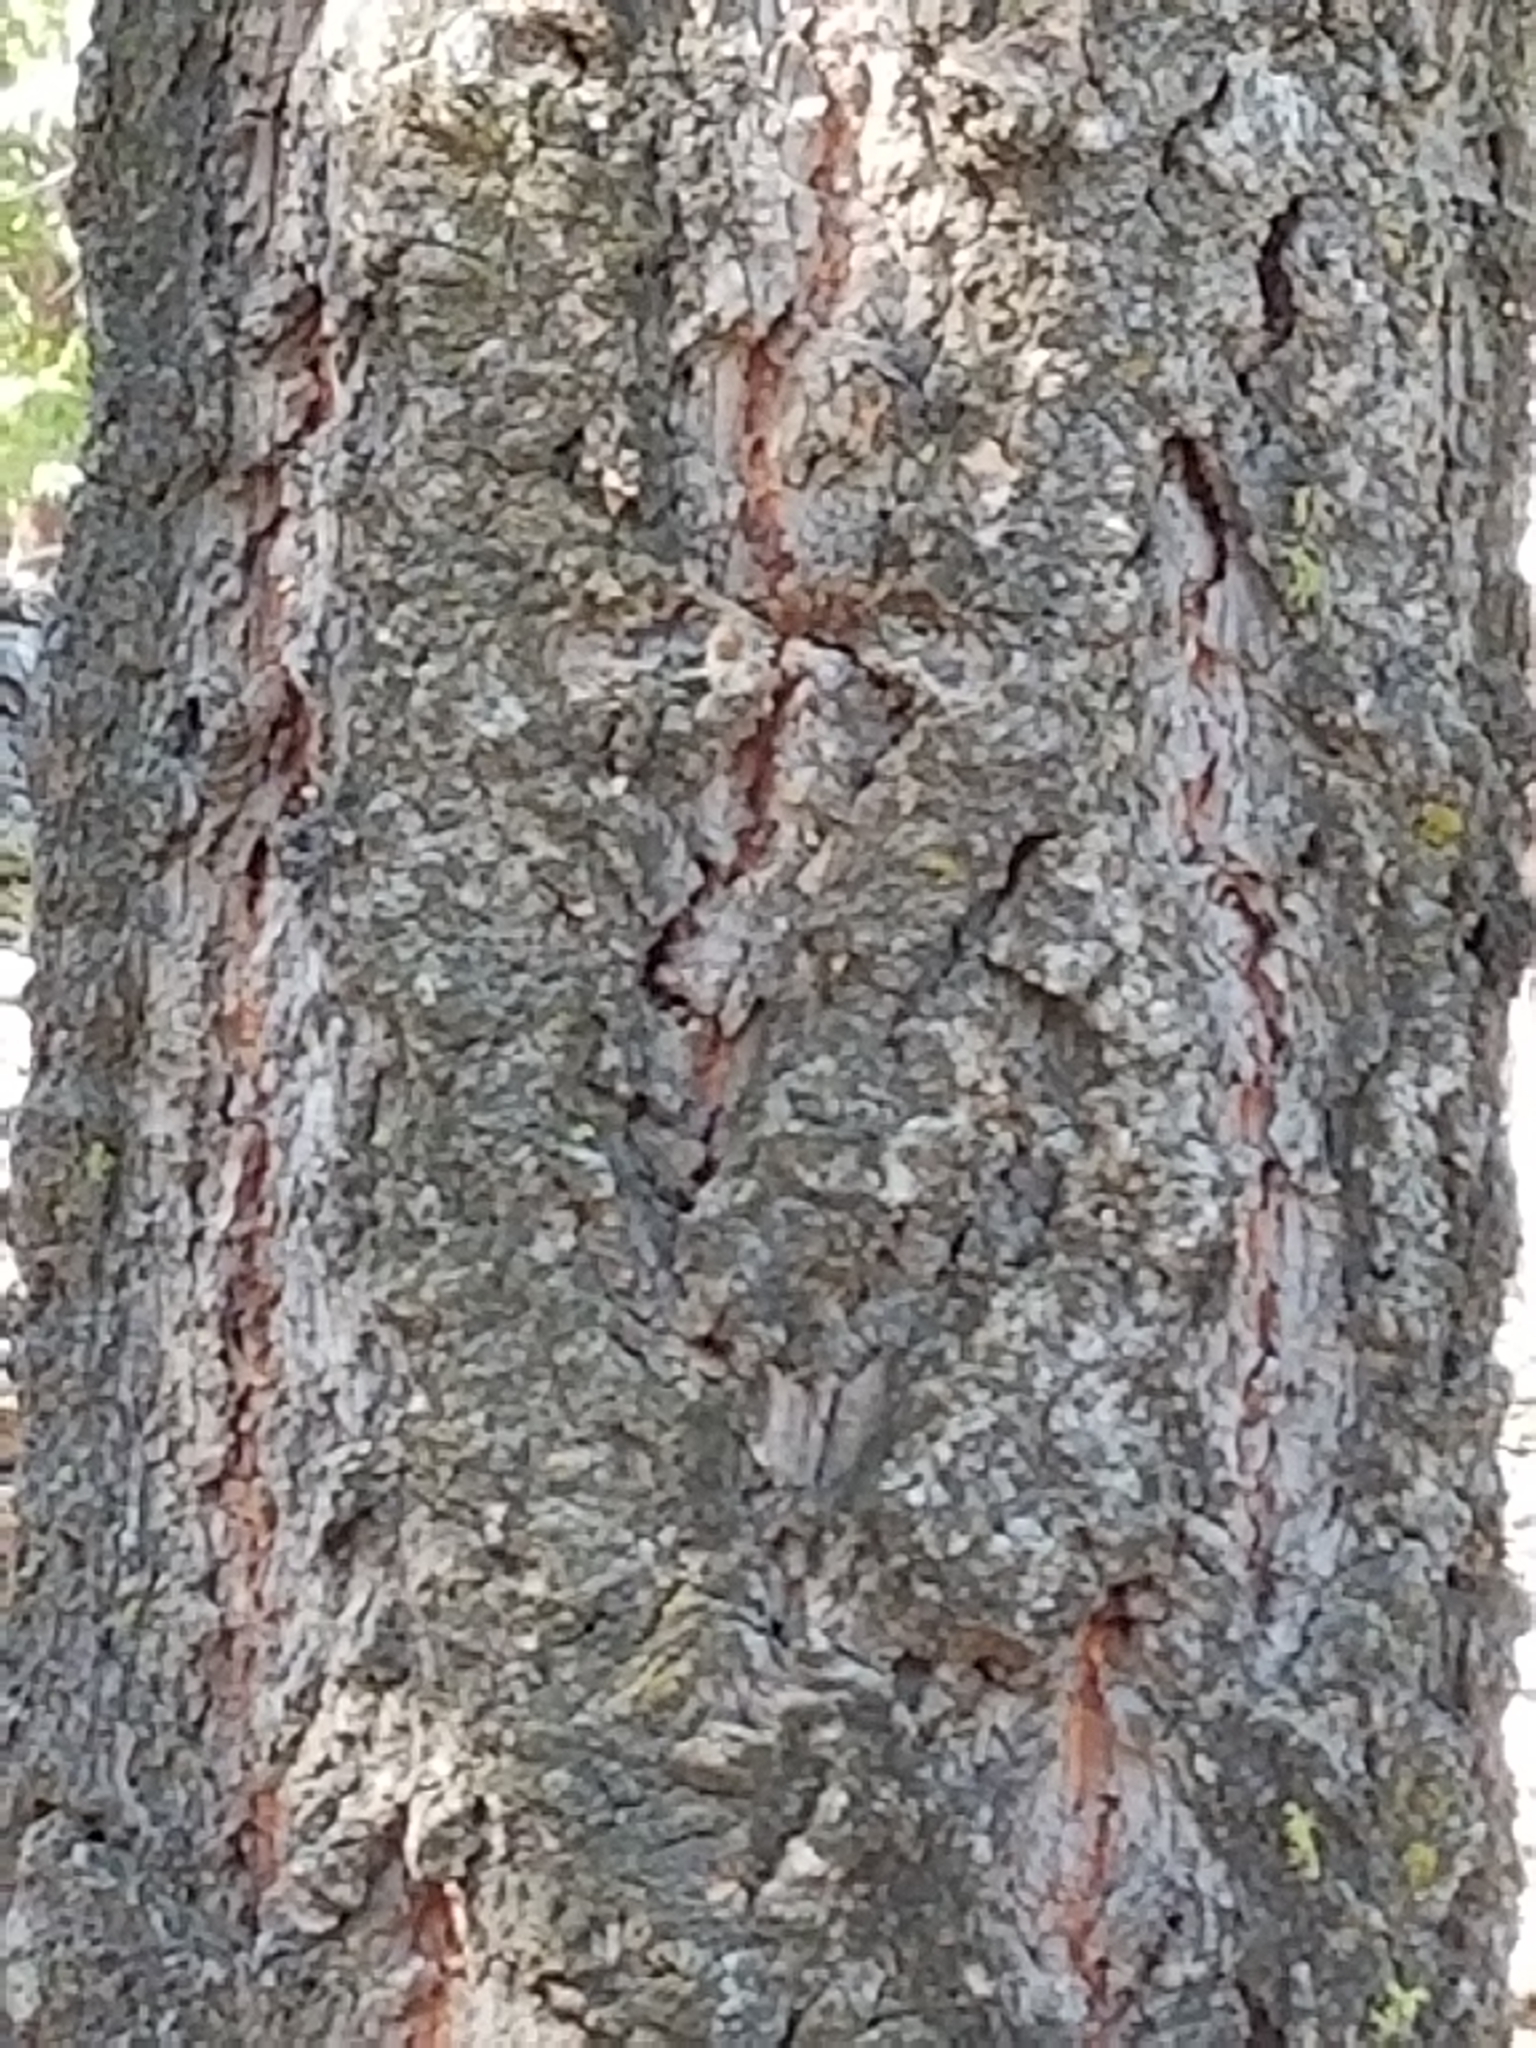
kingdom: Plantae
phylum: Tracheophyta
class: Pinopsida
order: Pinales
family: Pinaceae
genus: Abies
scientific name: Abies concolor
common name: Colorado fir
